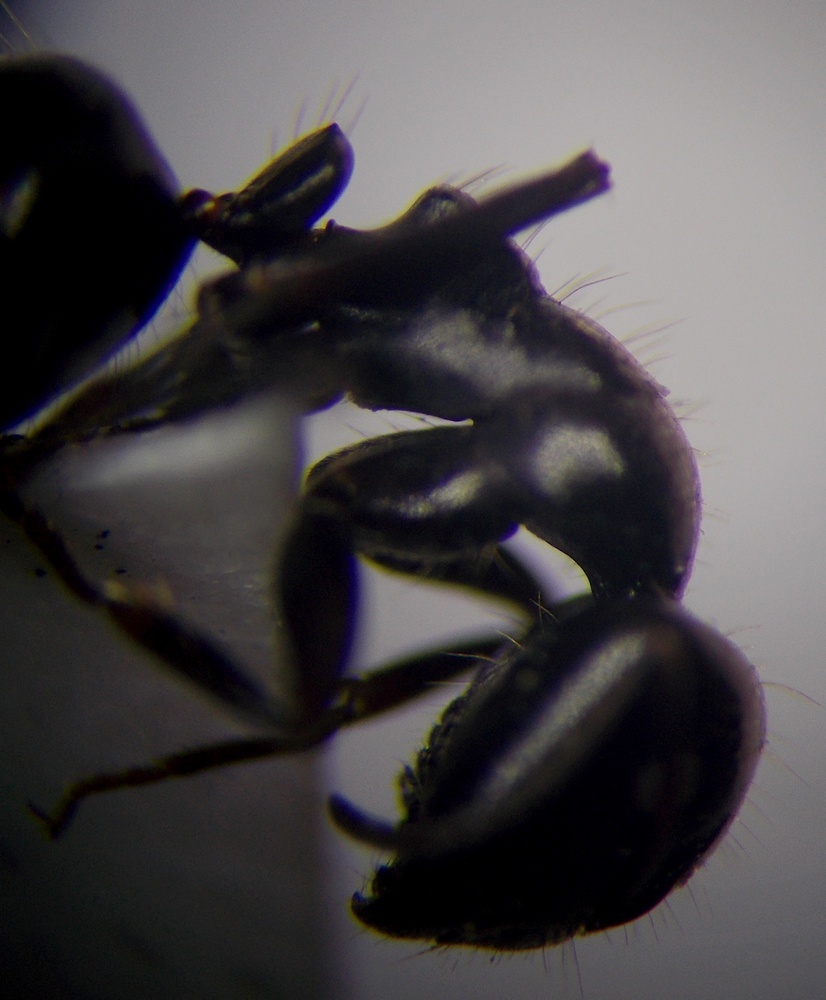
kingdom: Animalia
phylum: Arthropoda
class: Insecta
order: Hymenoptera
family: Formicidae
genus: Camponotus
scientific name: Camponotus piceus
